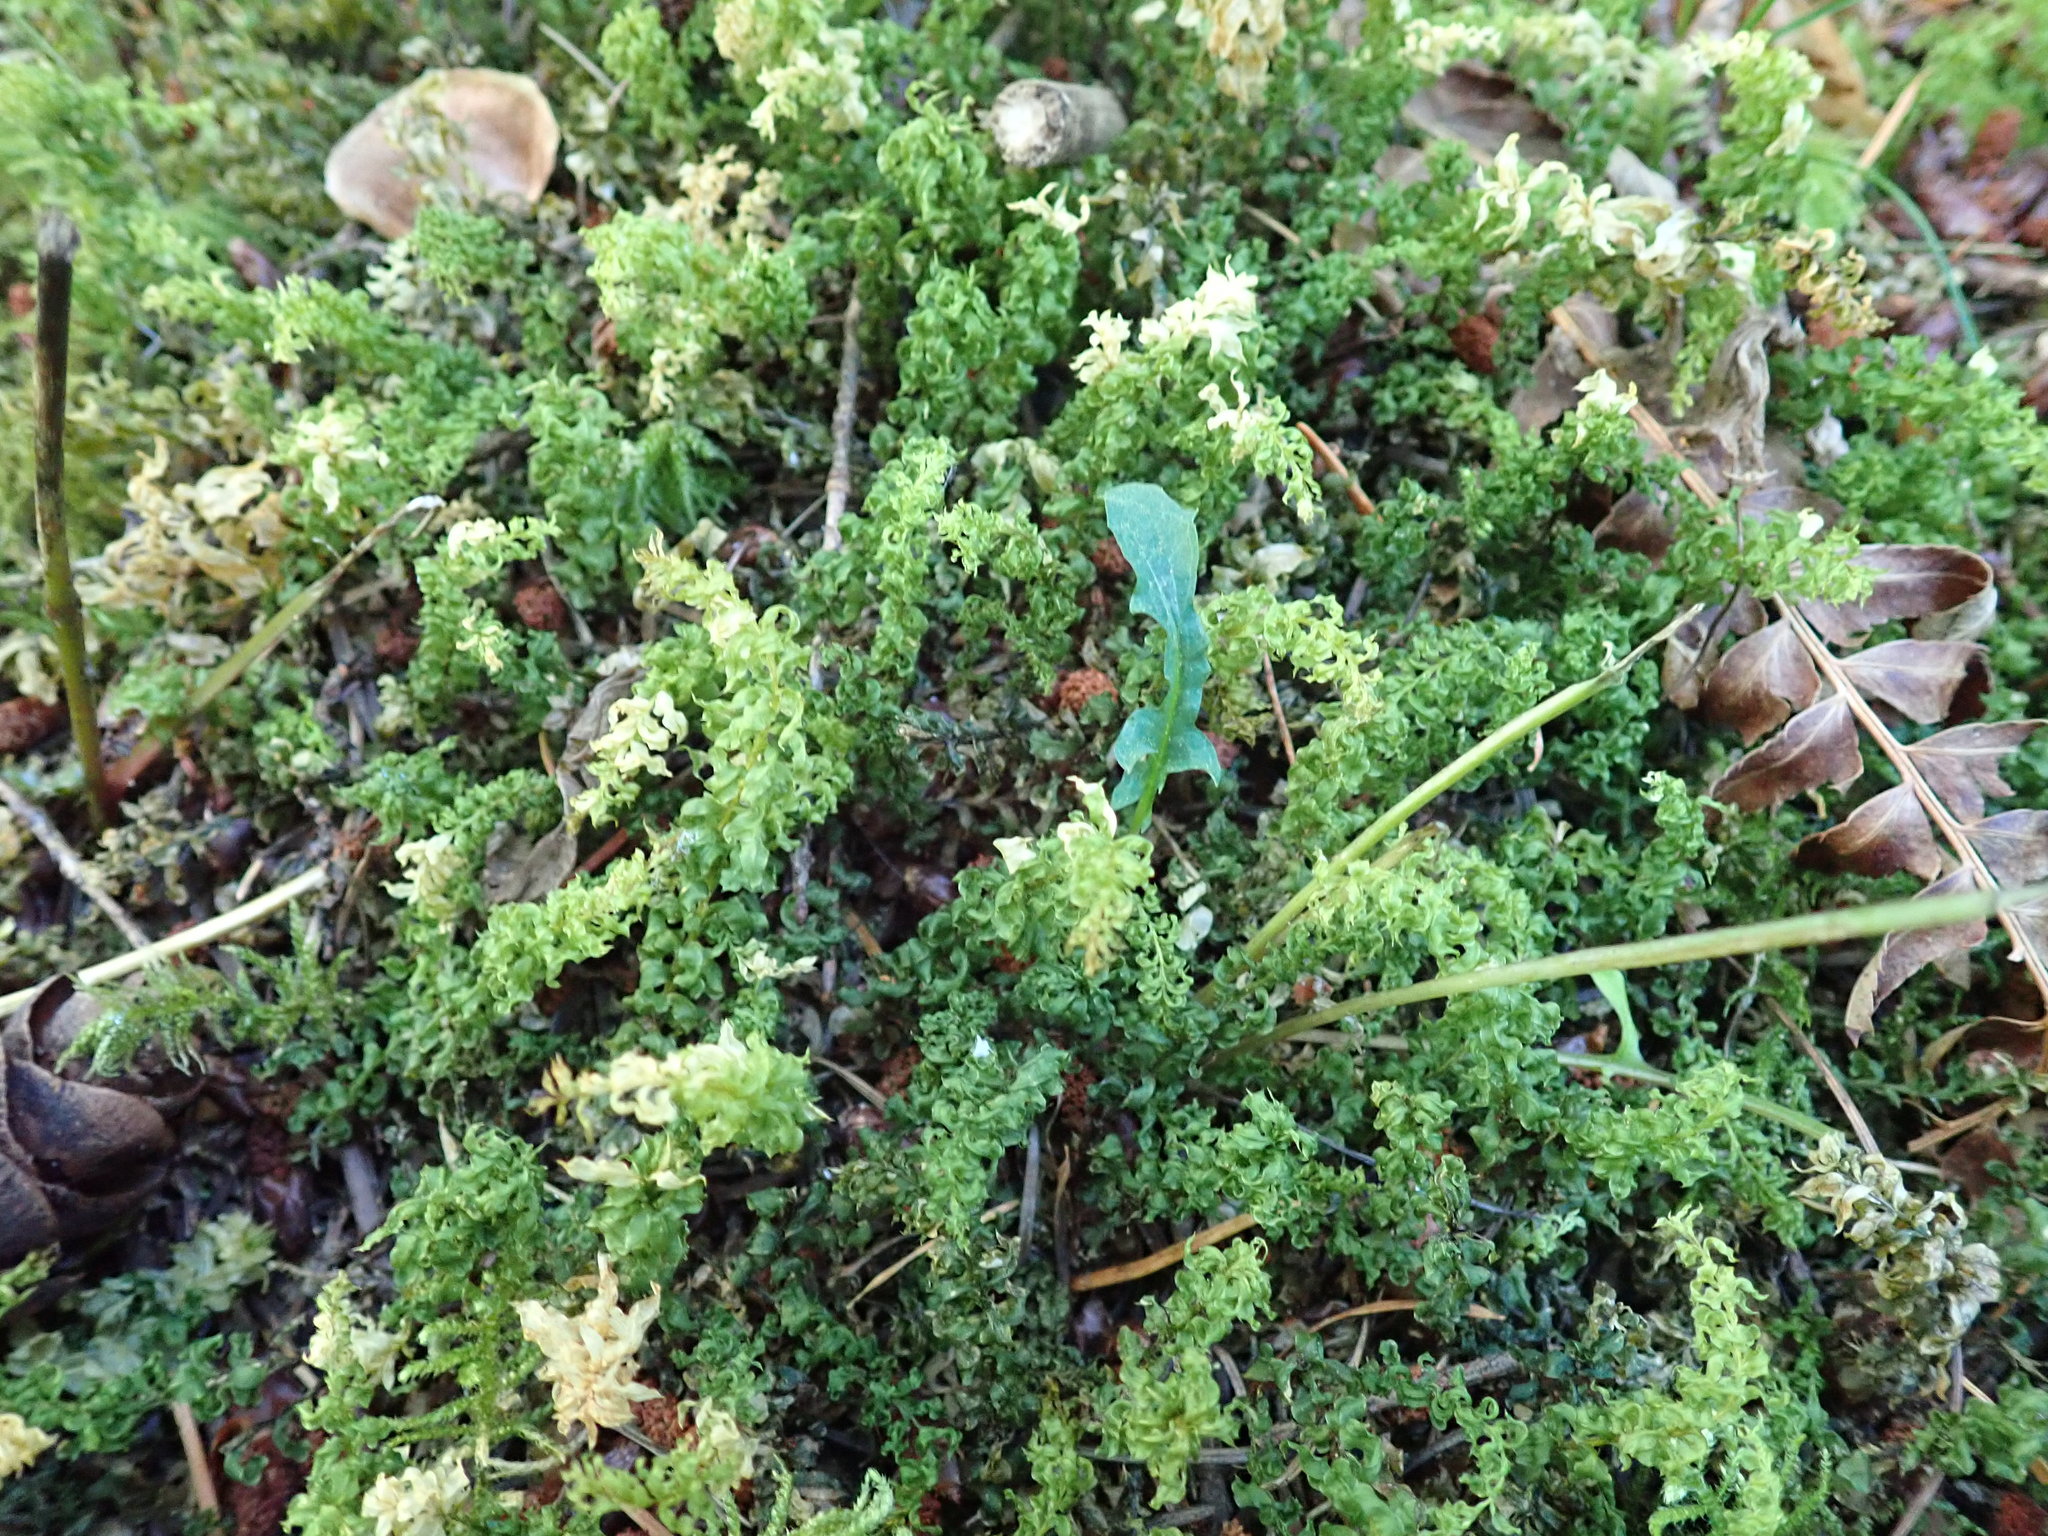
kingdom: Plantae
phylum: Bryophyta
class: Bryopsida
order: Bryales
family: Mniaceae
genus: Plagiomnium
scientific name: Plagiomnium insigne
